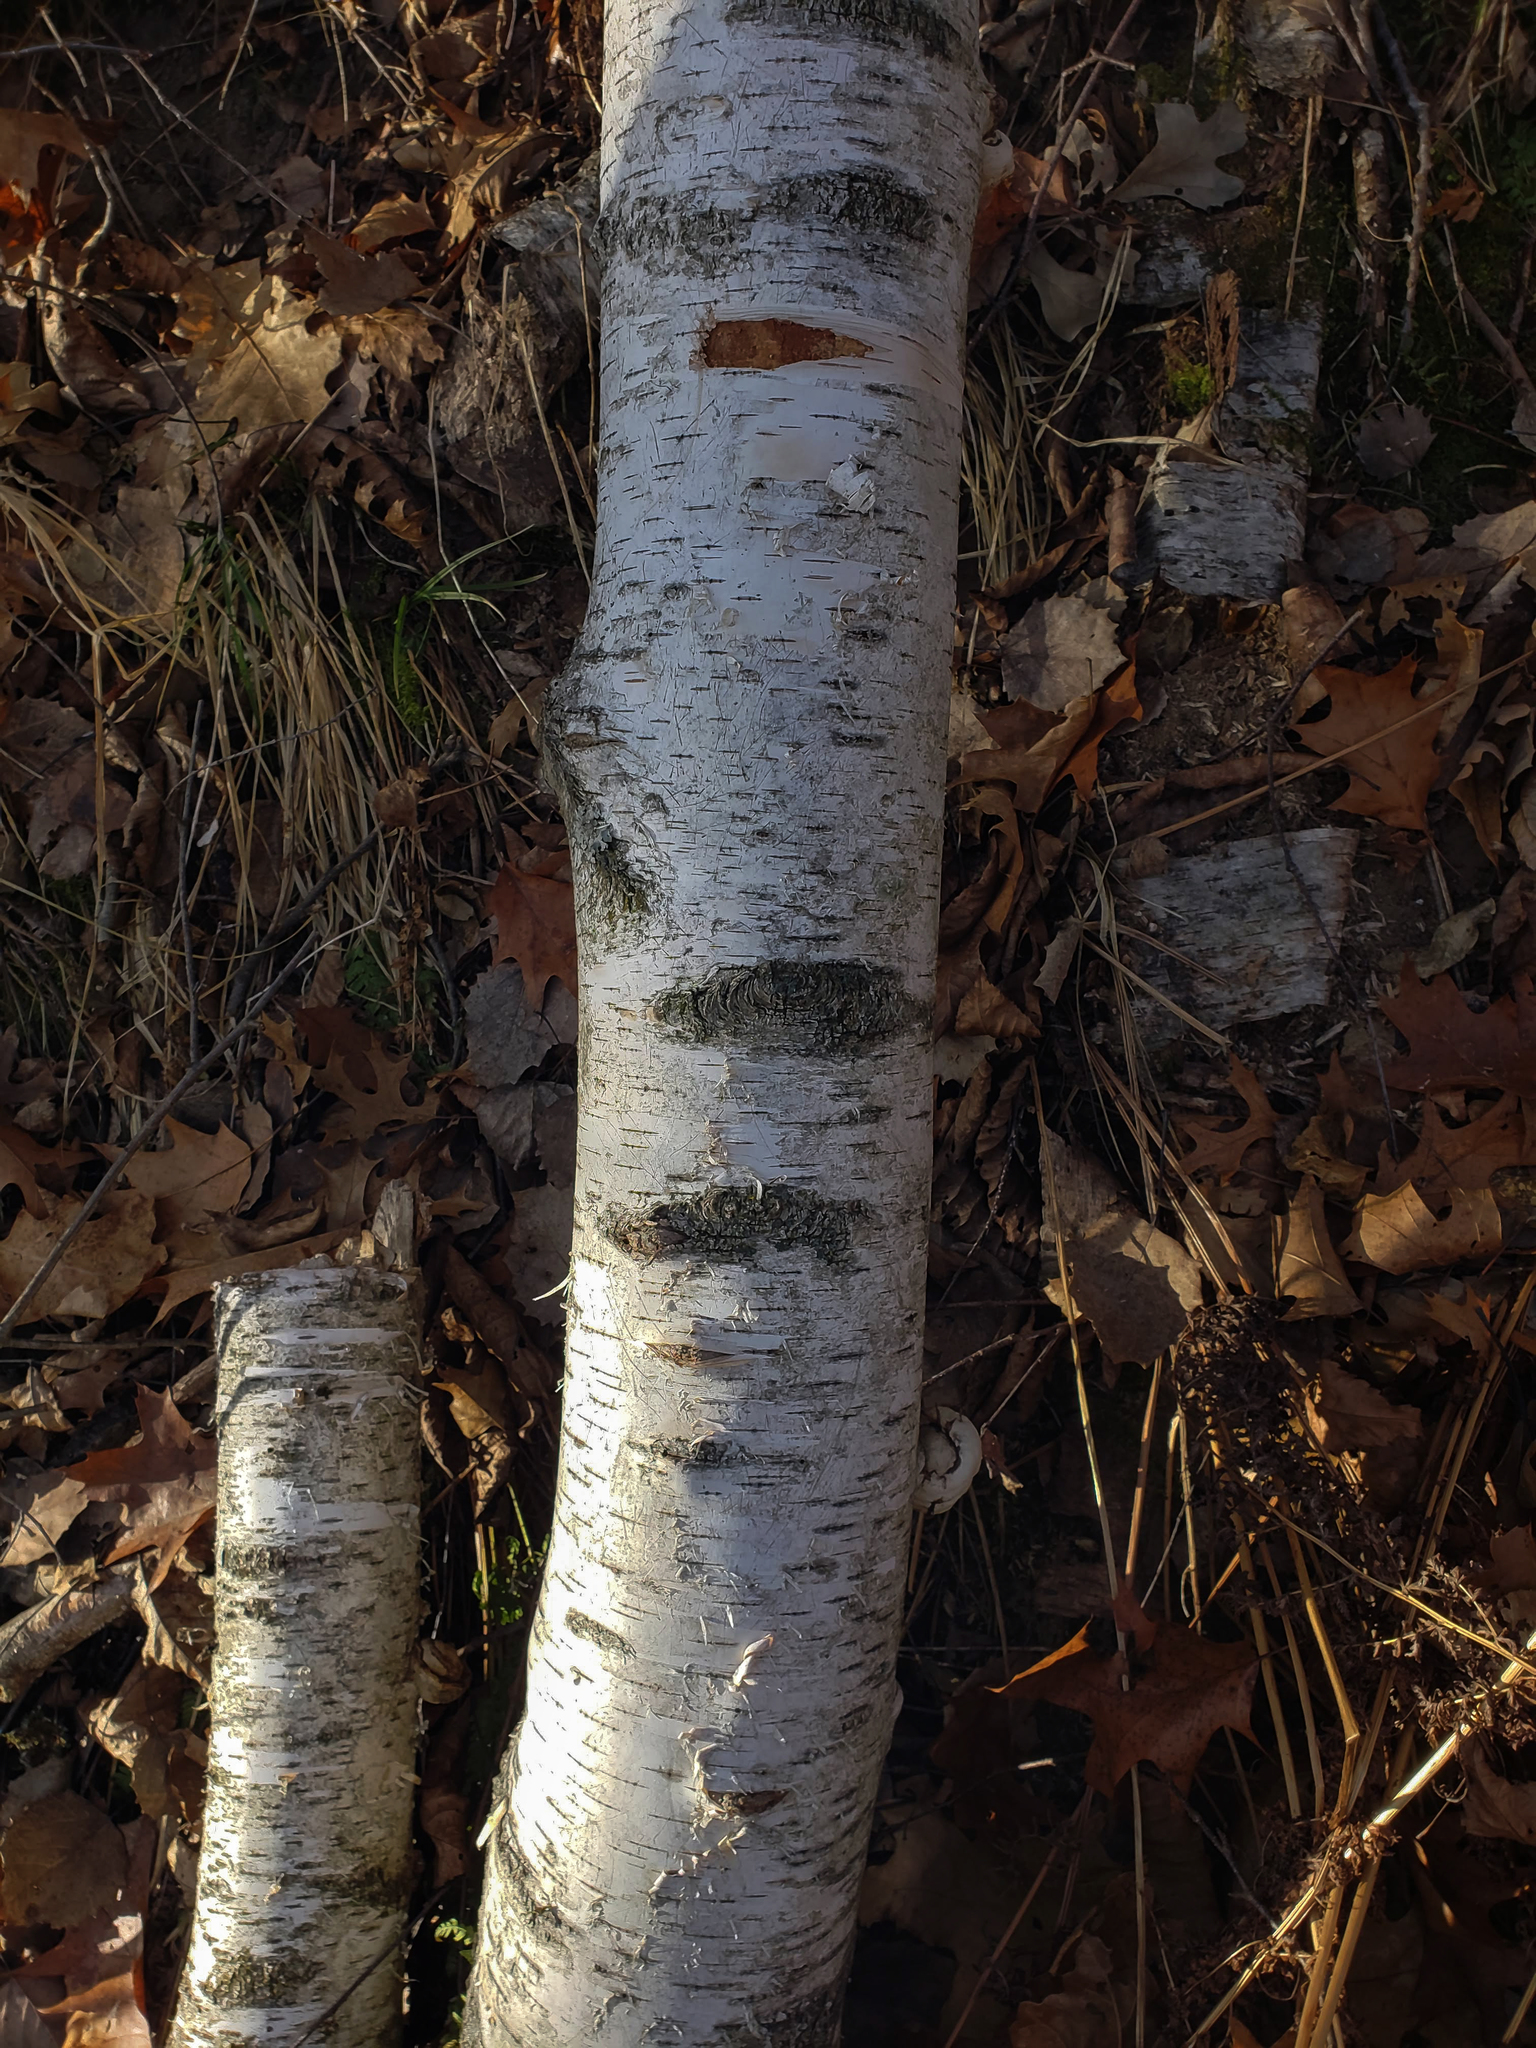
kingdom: Plantae
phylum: Tracheophyta
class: Magnoliopsida
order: Fagales
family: Betulaceae
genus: Betula
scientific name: Betula papyrifera
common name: Paper birch
